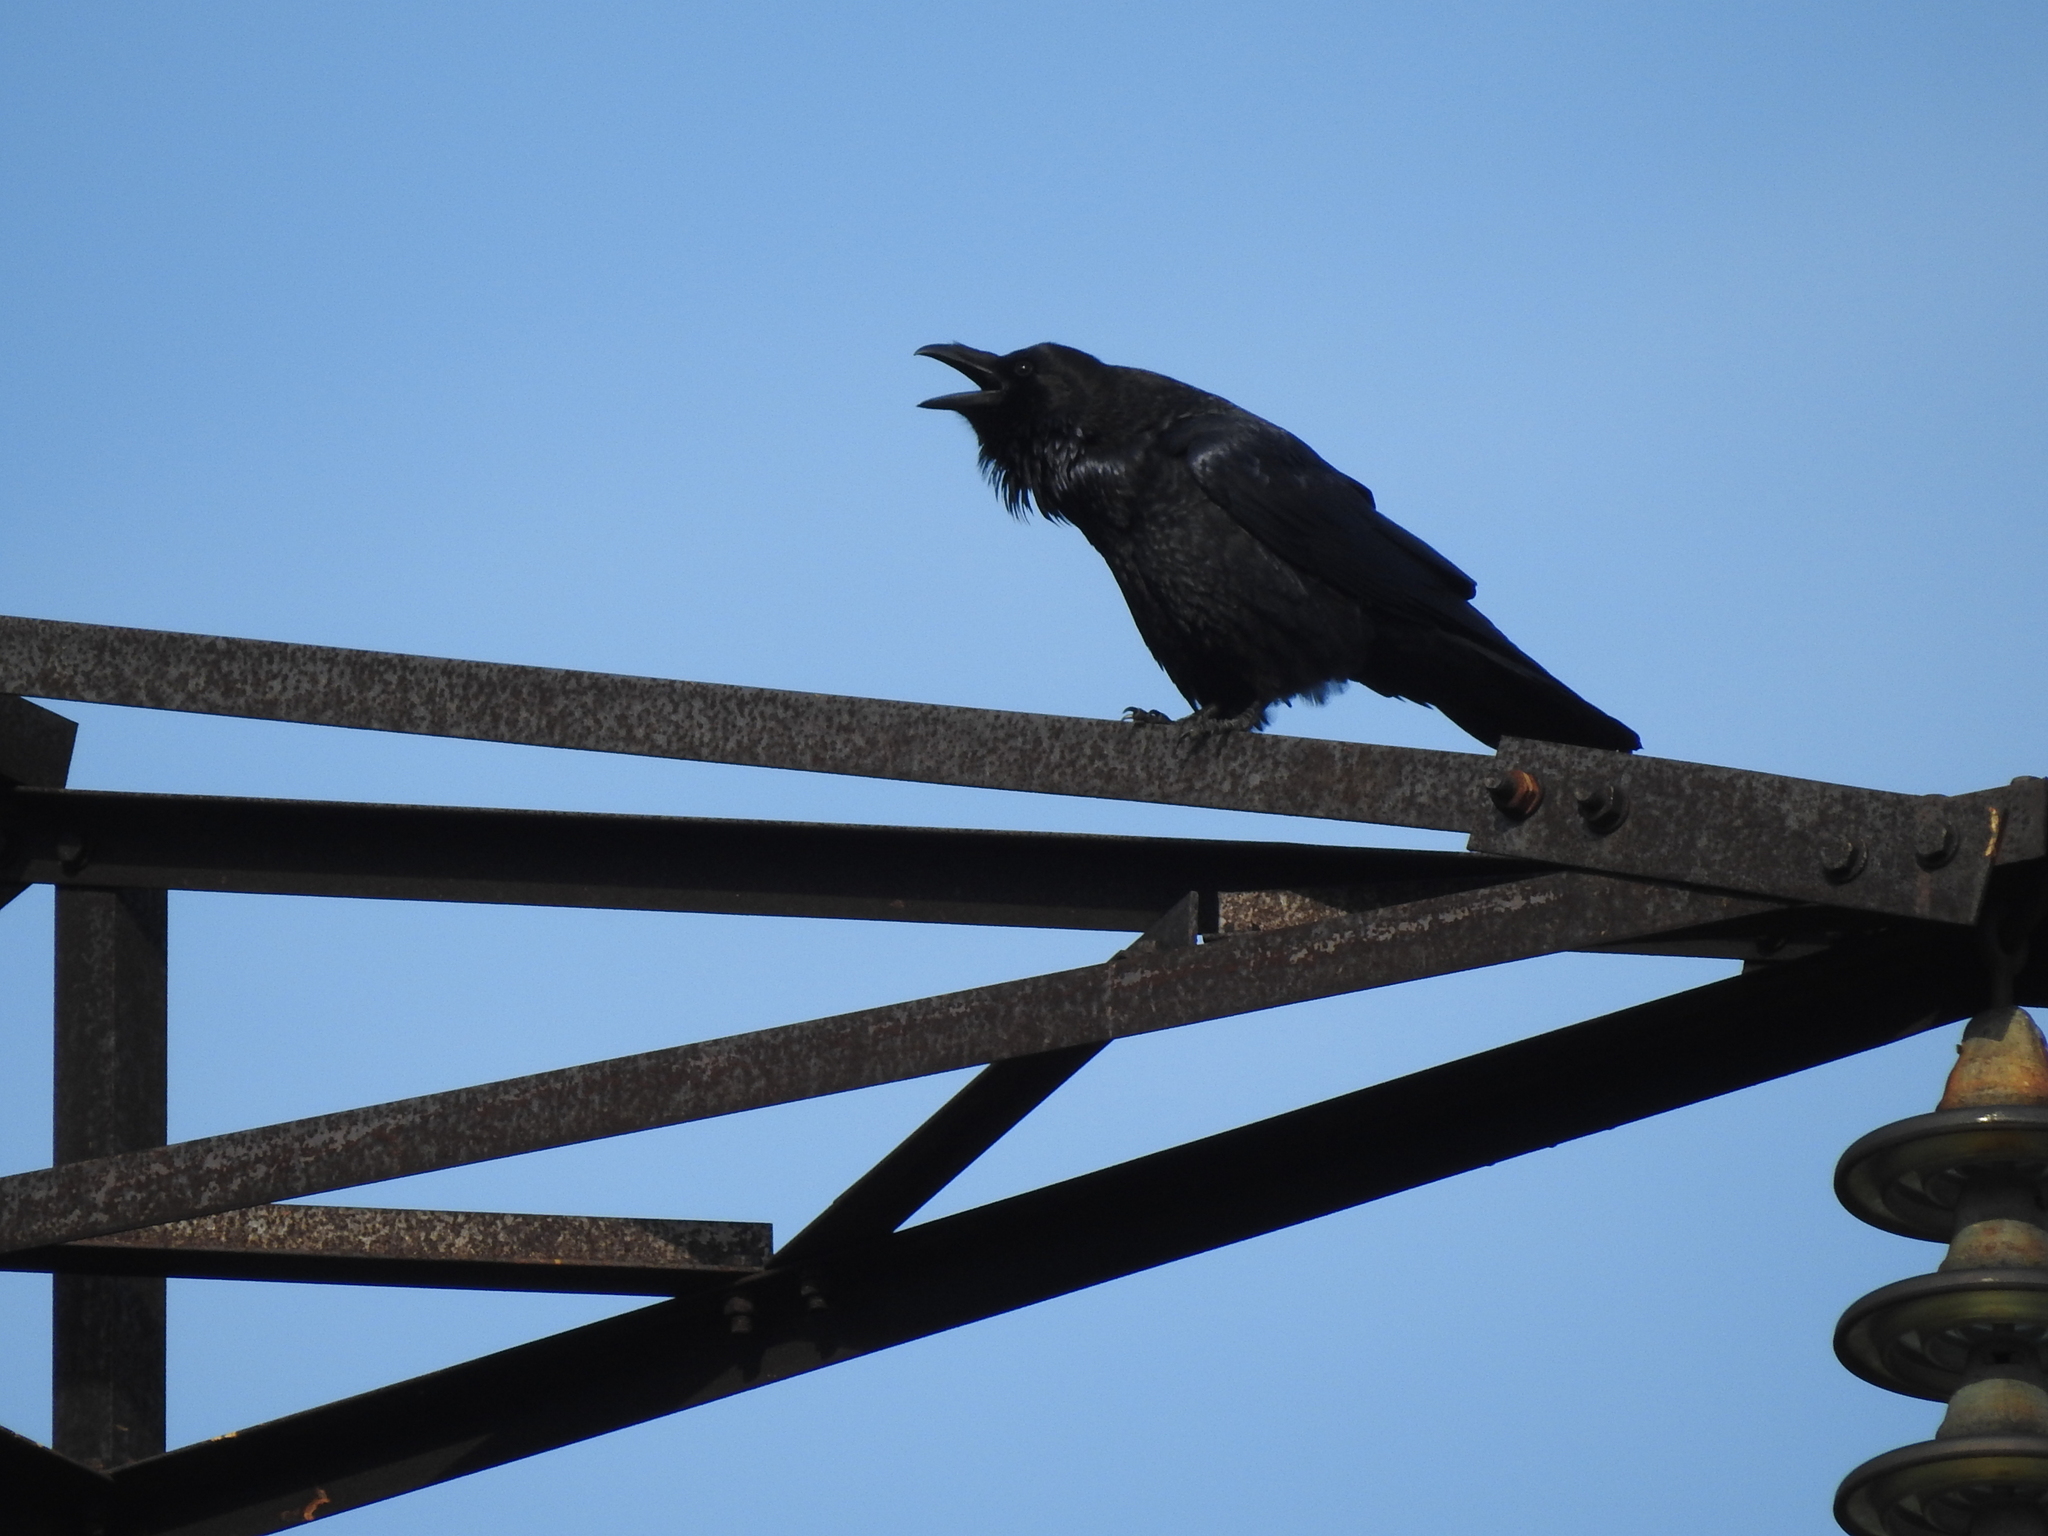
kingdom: Animalia
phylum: Chordata
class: Aves
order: Passeriformes
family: Corvidae
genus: Corvus
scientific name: Corvus corax
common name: Common raven
